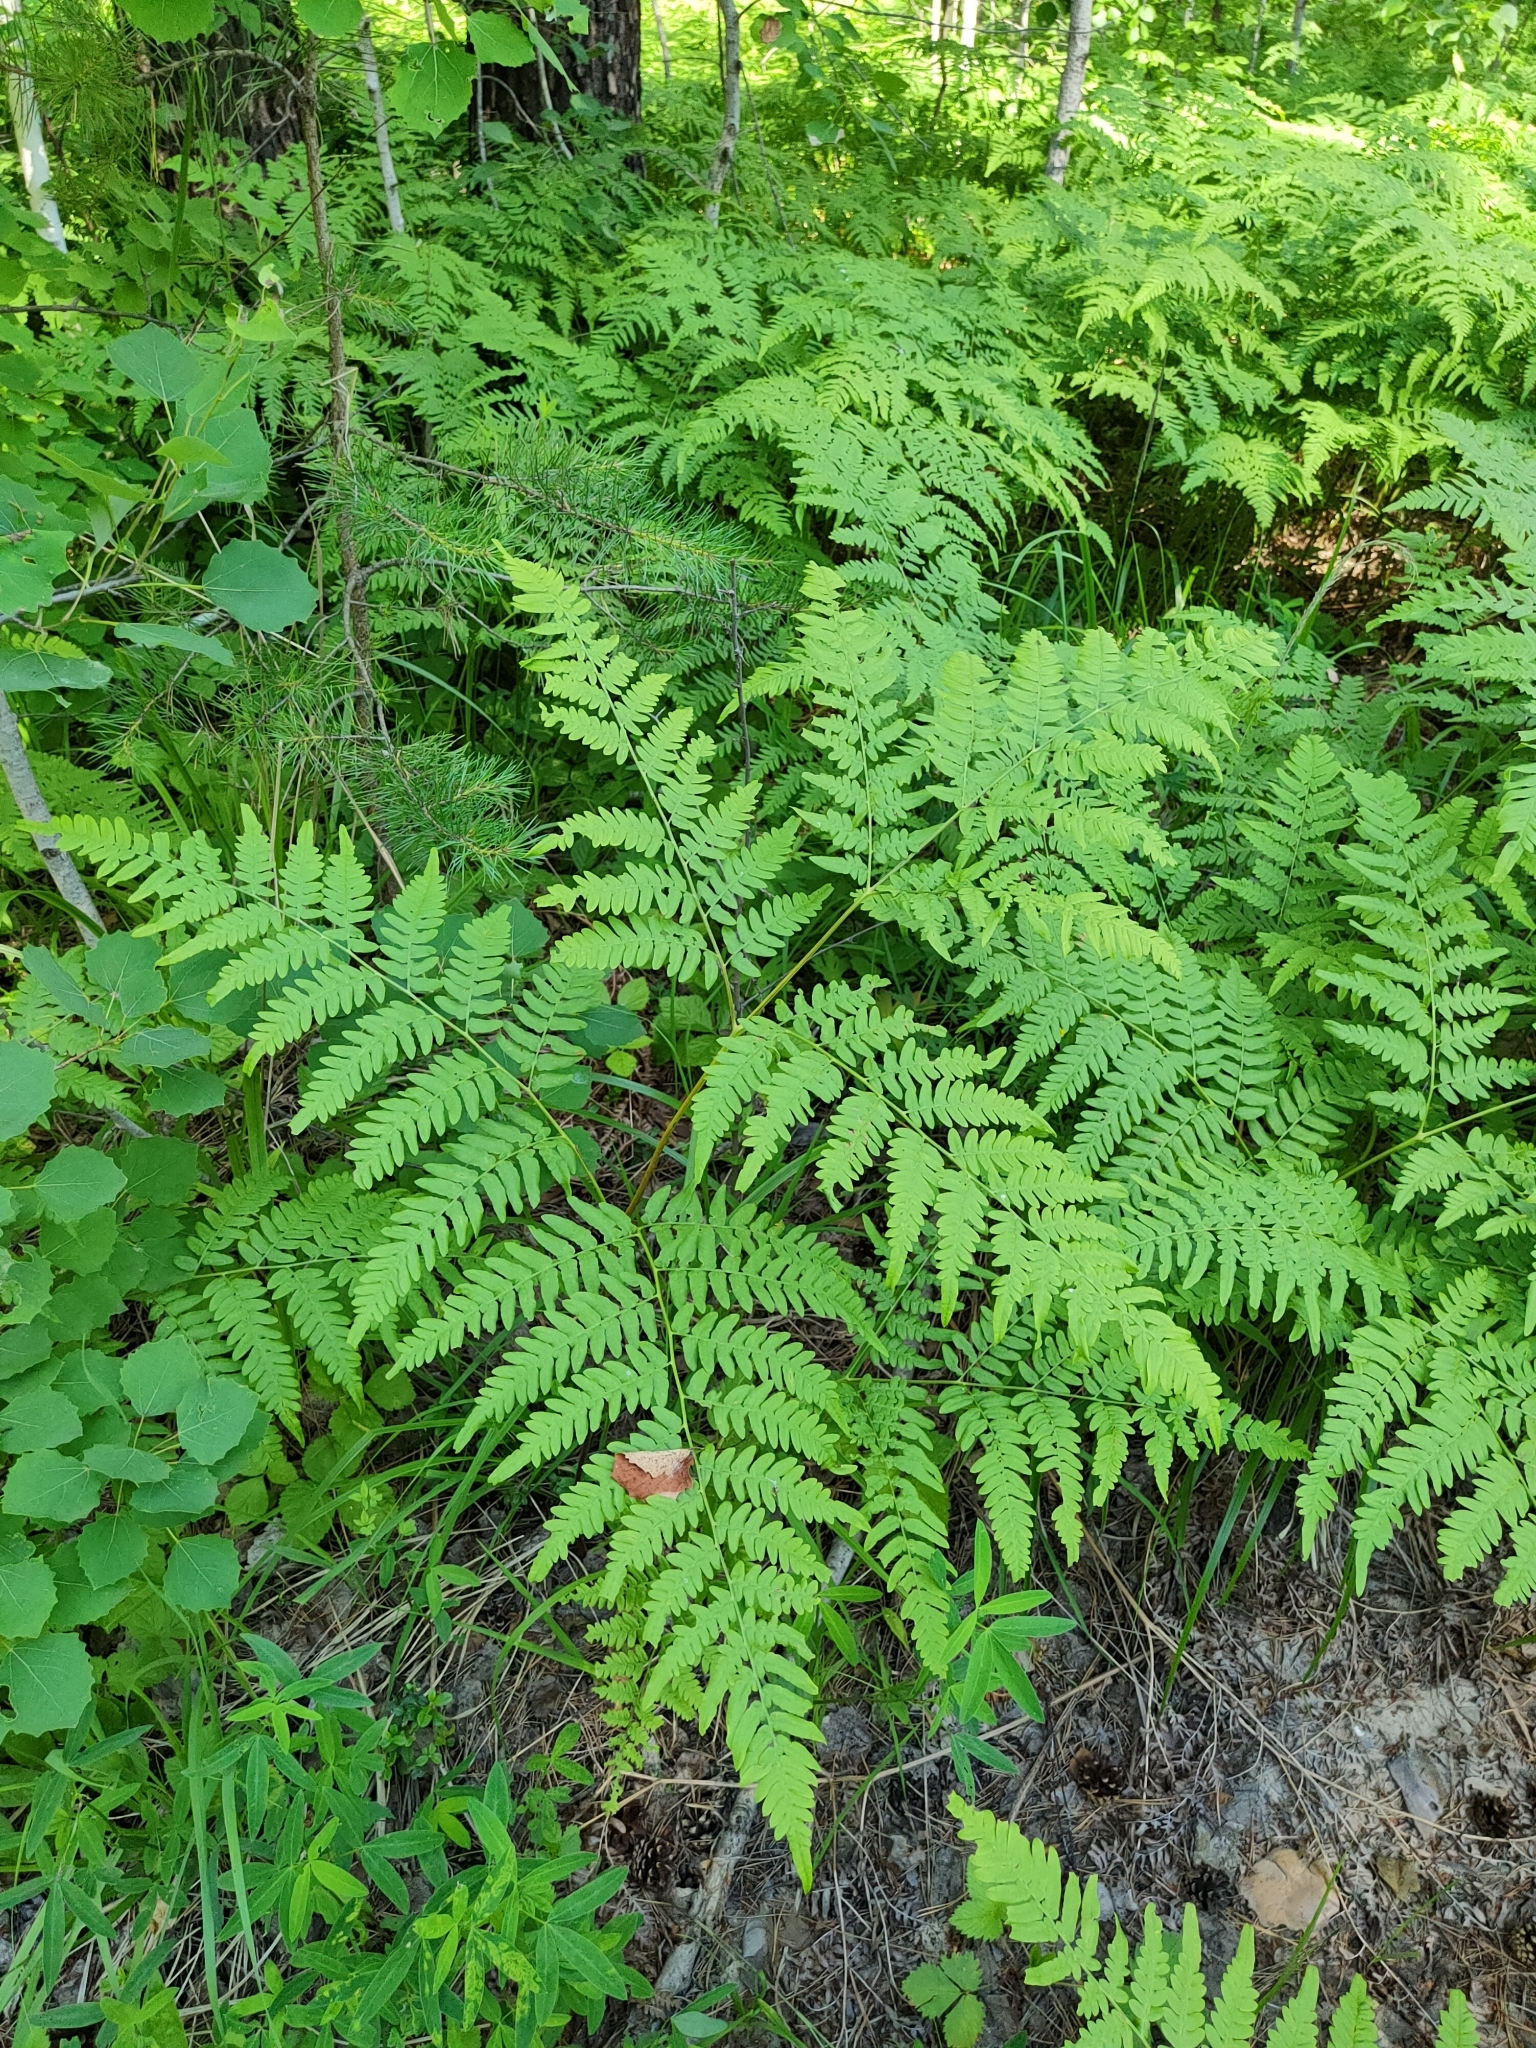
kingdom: Plantae
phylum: Tracheophyta
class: Polypodiopsida
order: Polypodiales
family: Dennstaedtiaceae
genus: Pteridium
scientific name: Pteridium aquilinum
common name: Bracken
